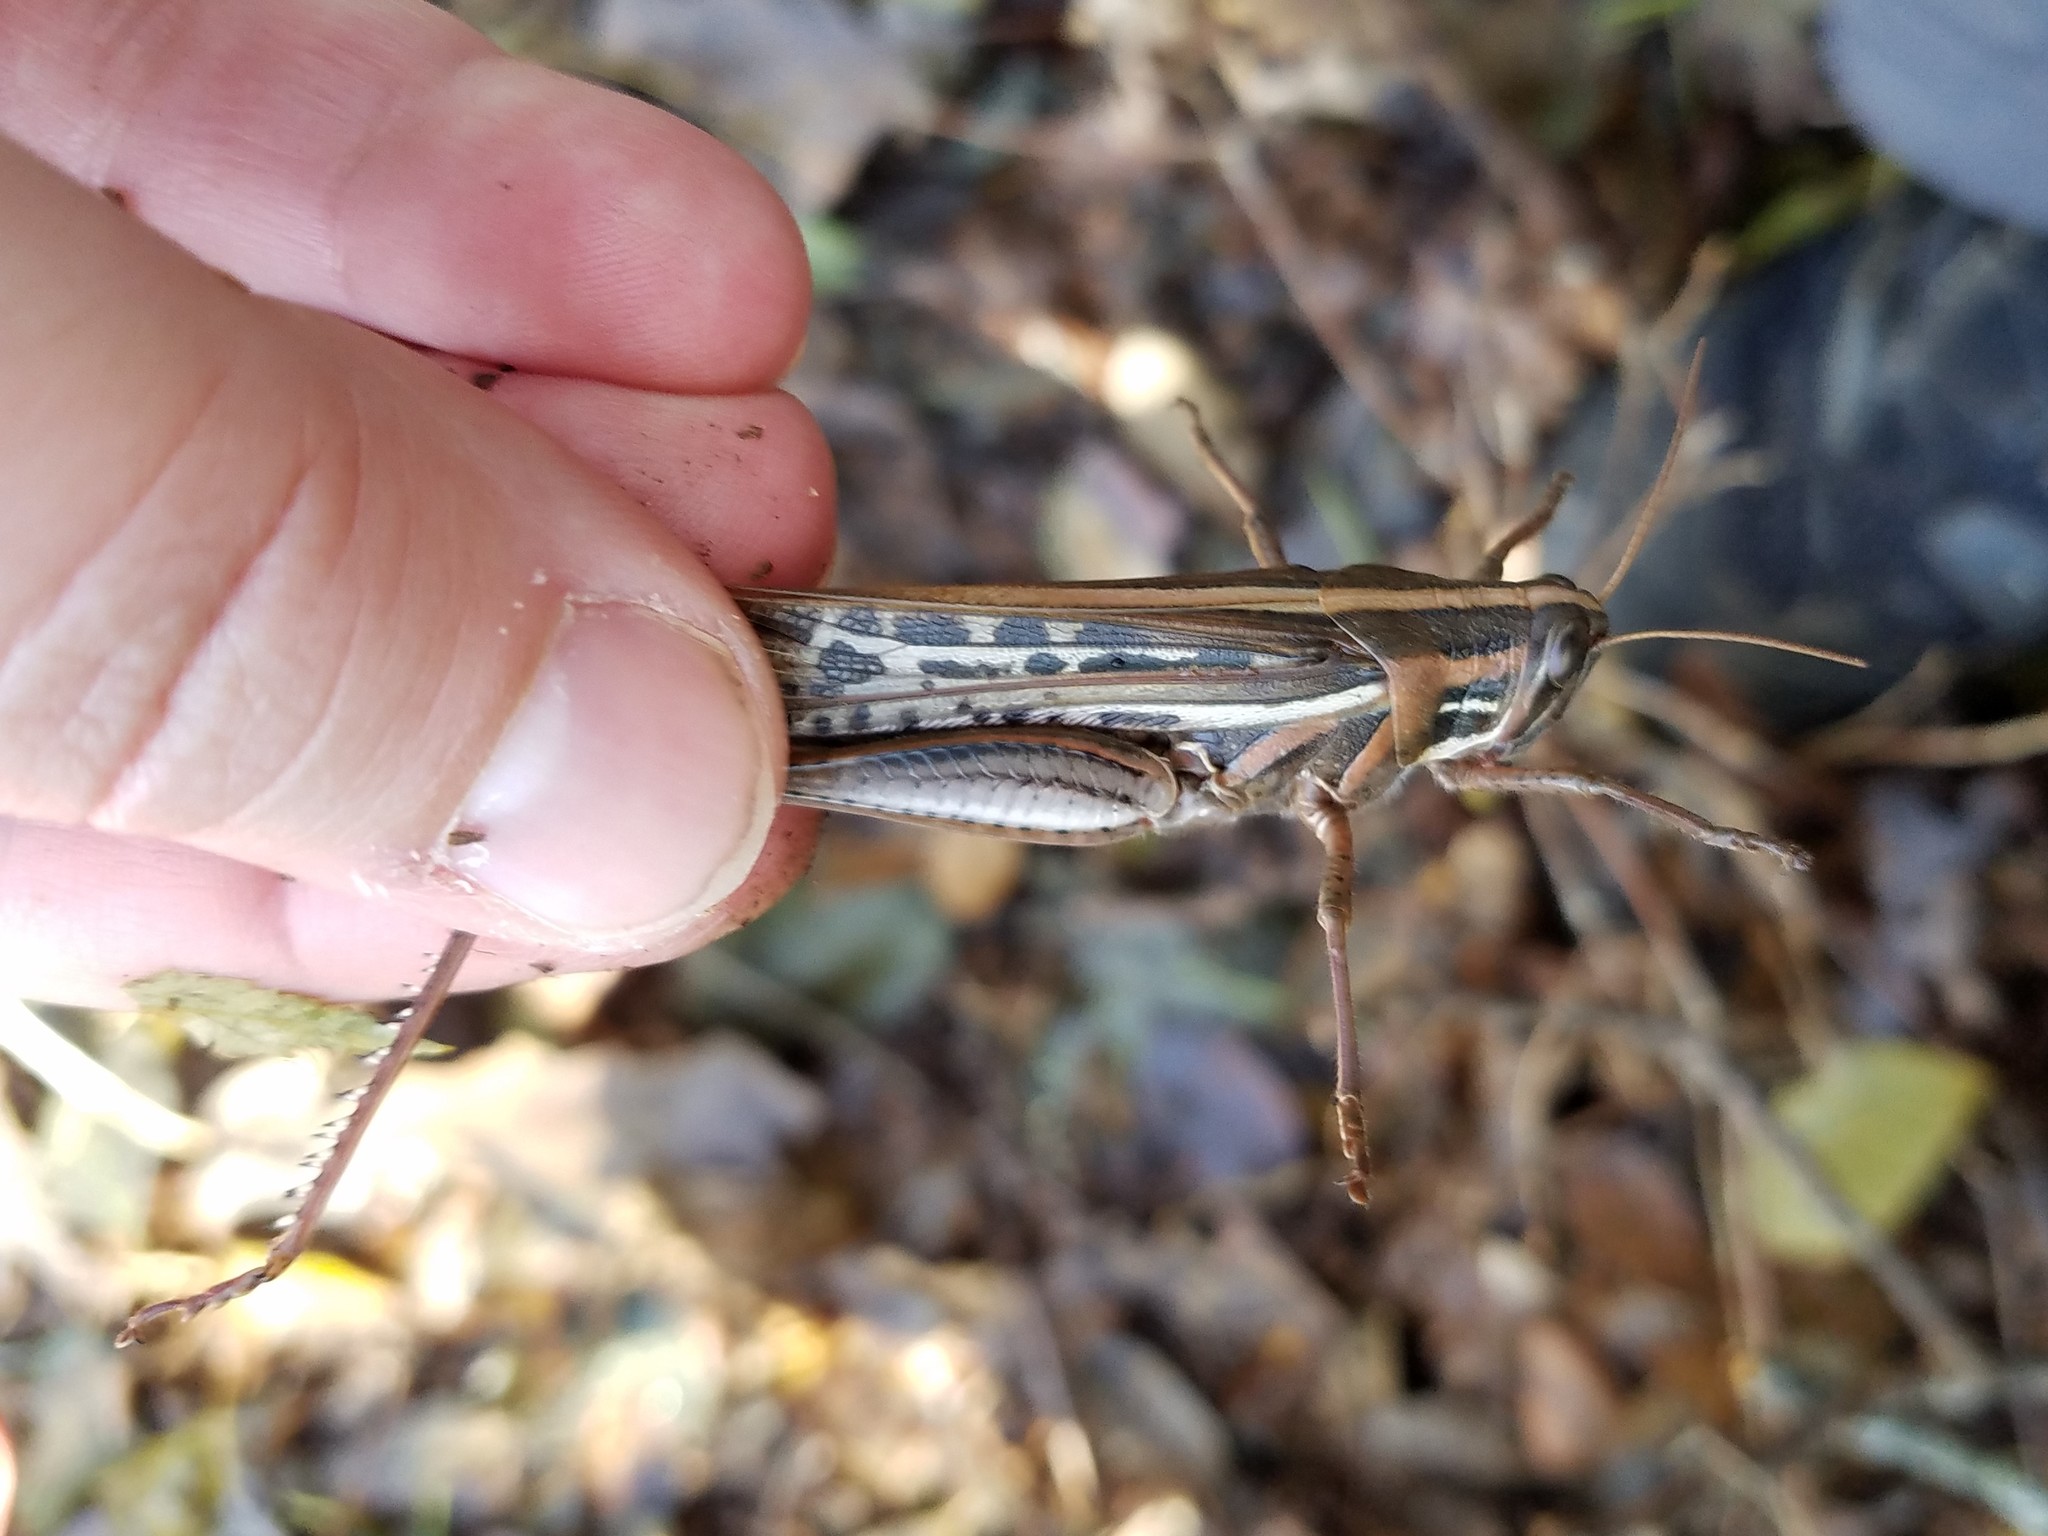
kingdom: Animalia
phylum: Arthropoda
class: Insecta
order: Orthoptera
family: Acrididae
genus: Schistocerca
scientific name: Schistocerca americana
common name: American bird locust
